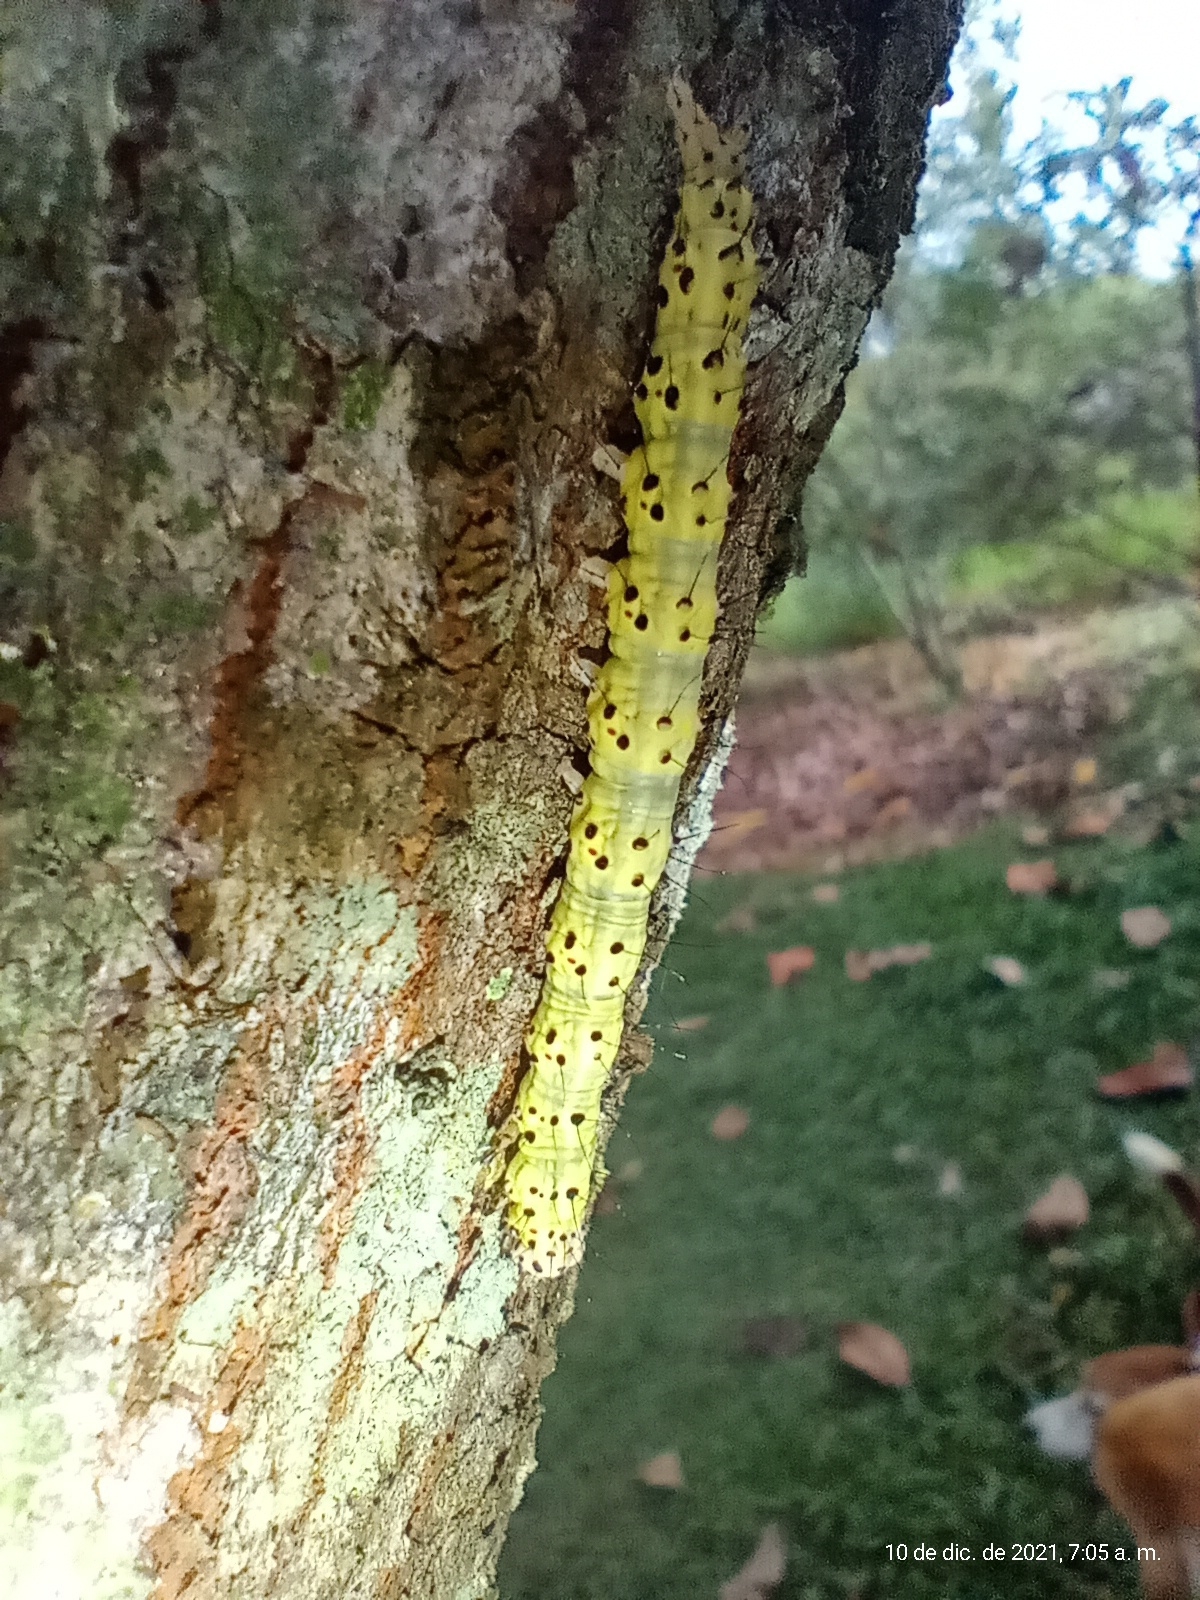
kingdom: Animalia
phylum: Arthropoda
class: Insecta
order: Lepidoptera
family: Erebidae
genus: Azeta
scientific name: Azeta melanea
